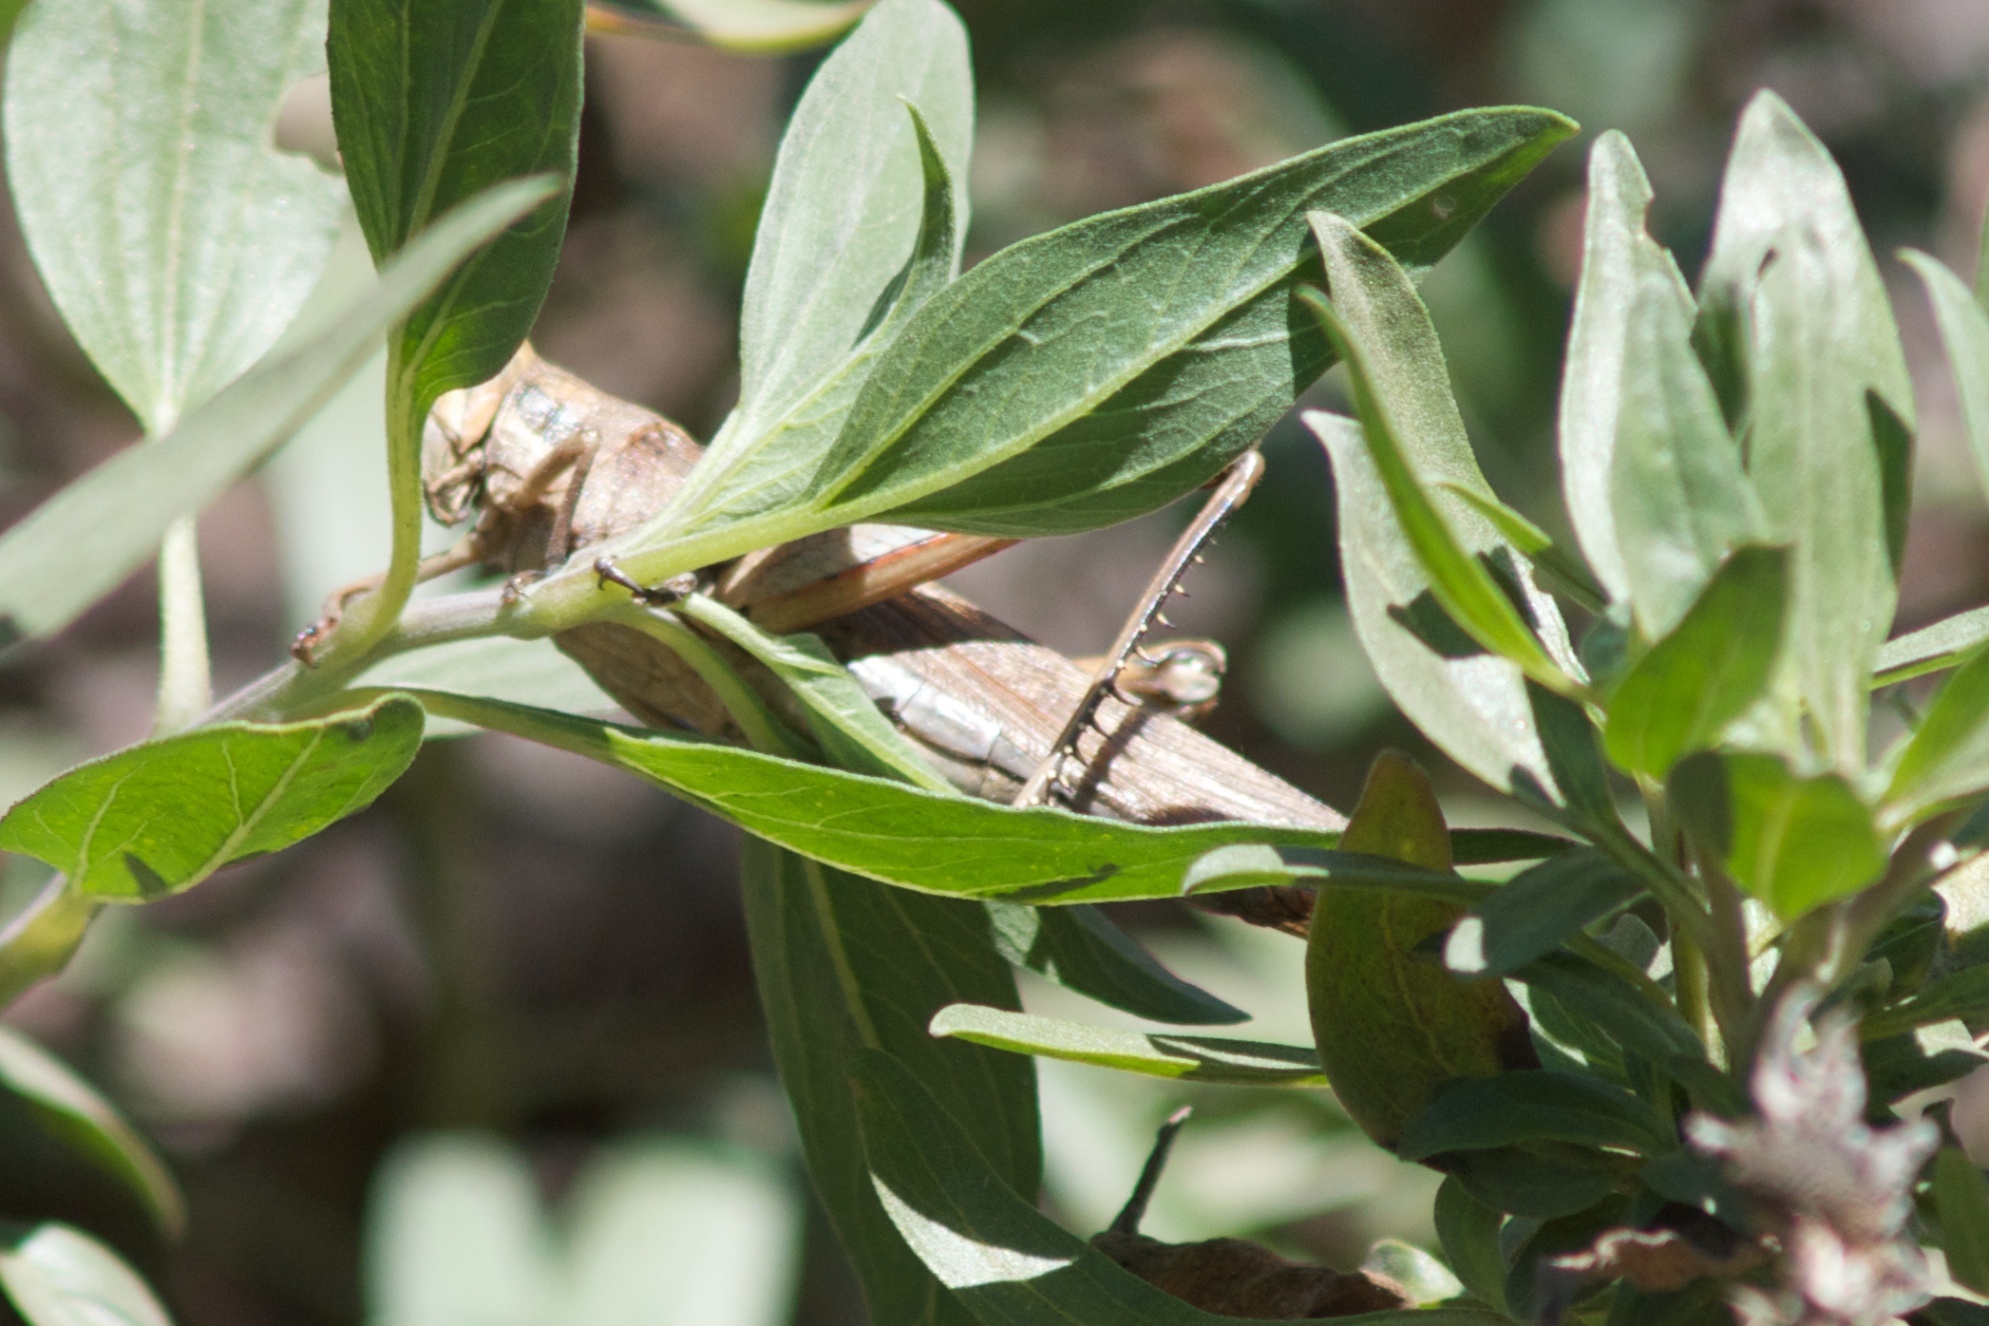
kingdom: Animalia
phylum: Arthropoda
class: Insecta
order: Orthoptera
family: Acrididae
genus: Schistocerca
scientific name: Schistocerca nitens
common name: Vagrant grasshopper
